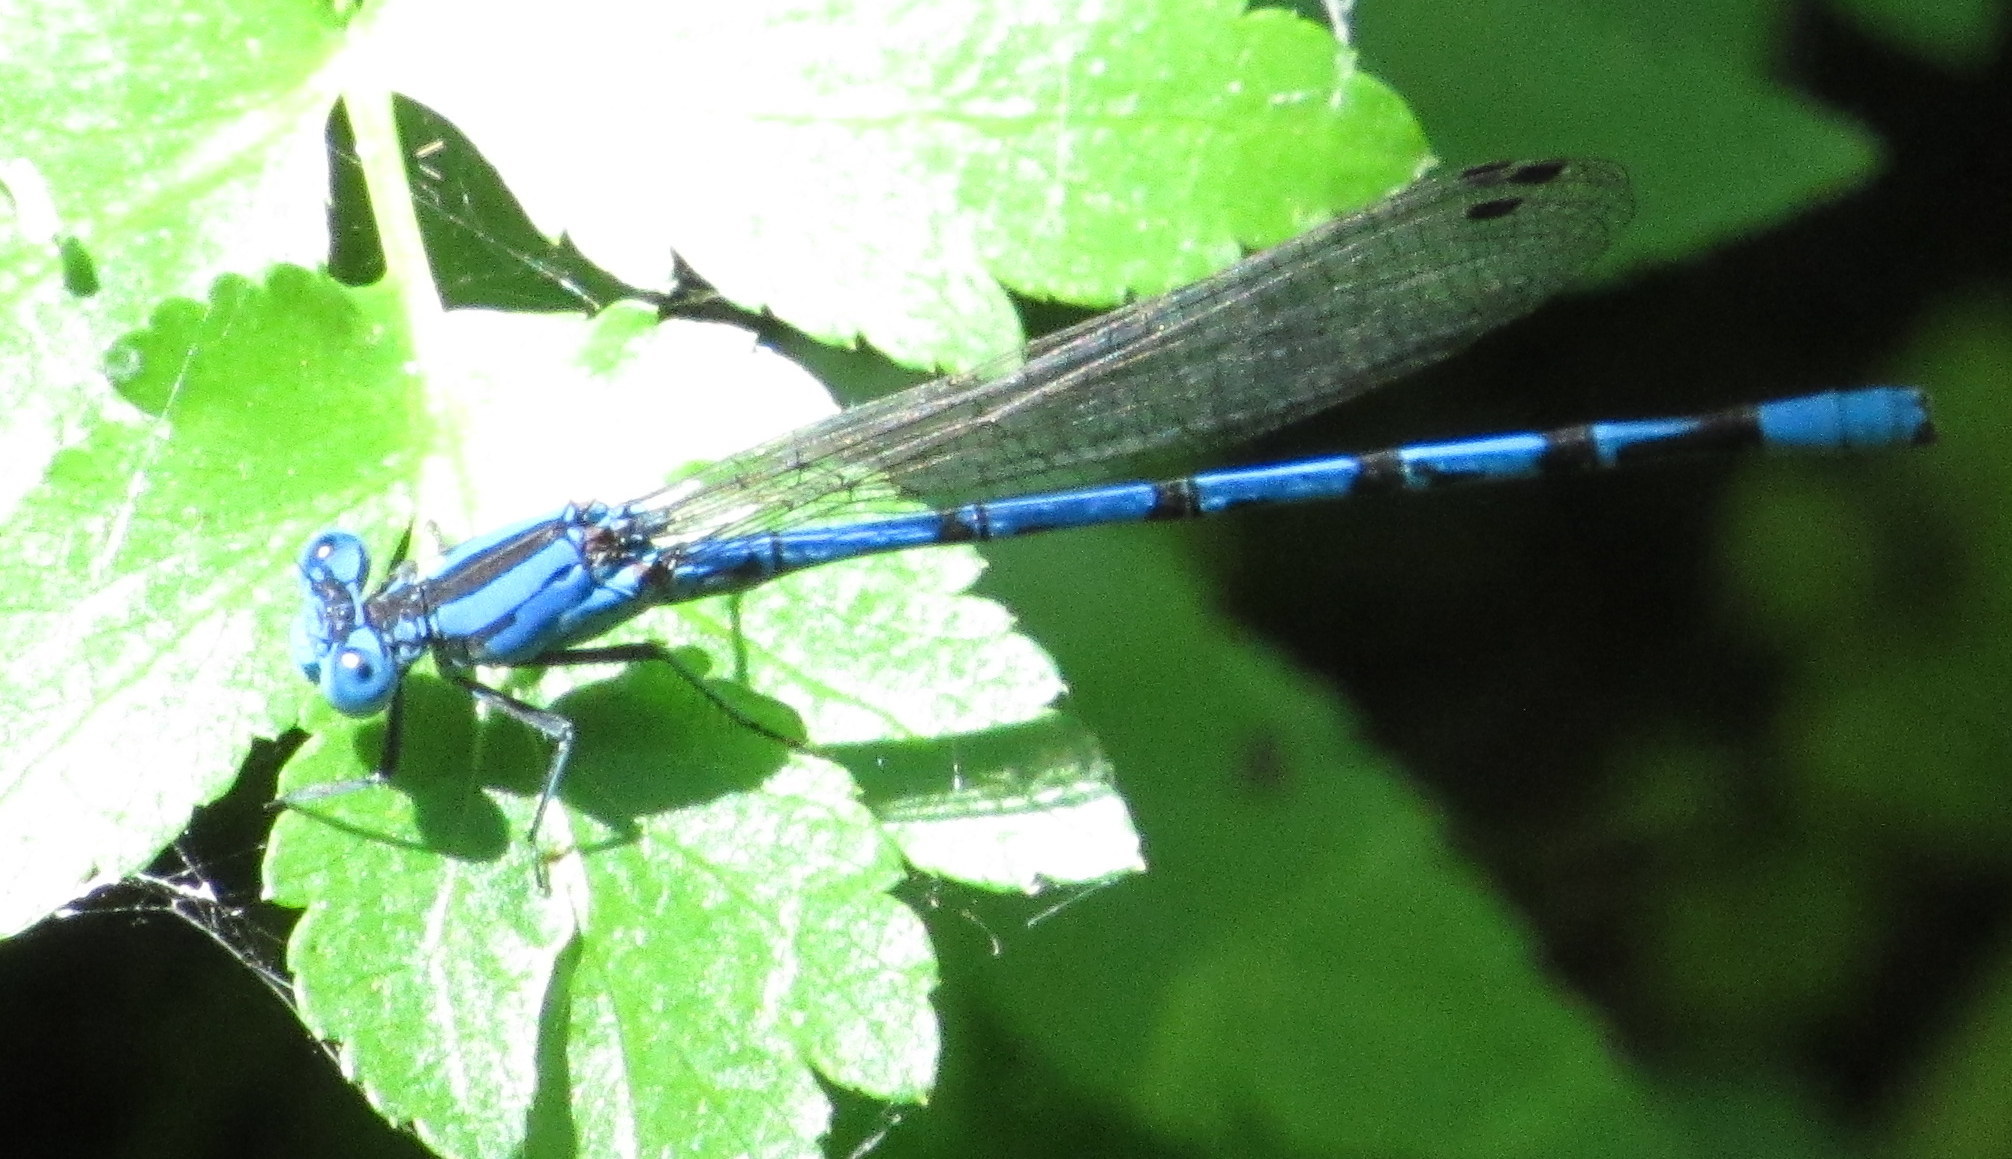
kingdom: Animalia
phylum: Arthropoda
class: Insecta
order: Odonata
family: Coenagrionidae
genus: Argia
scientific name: Argia funebris
